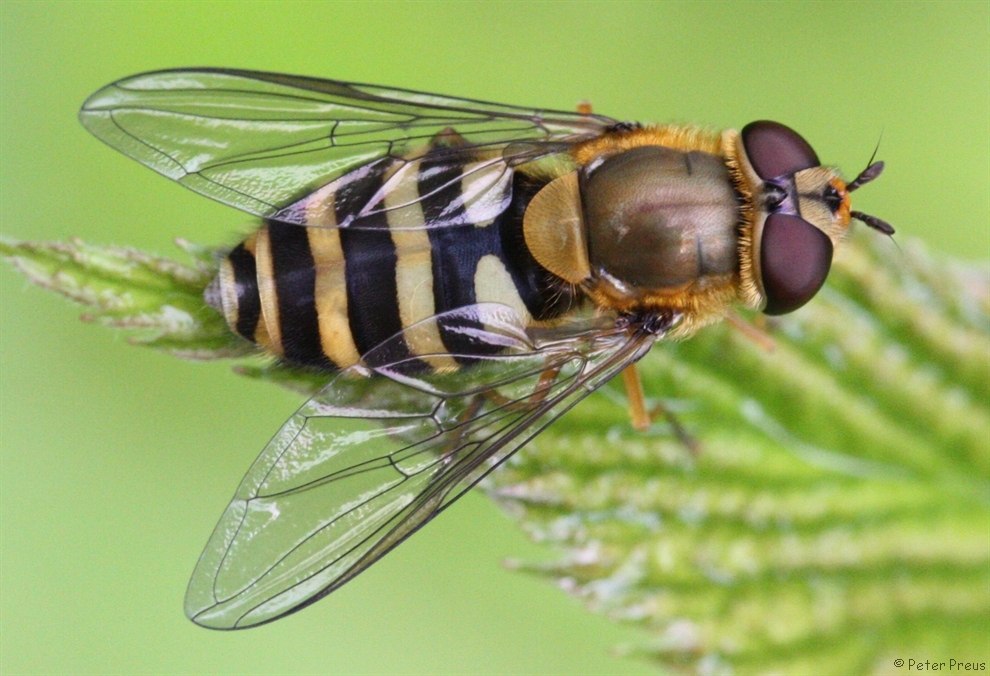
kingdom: Animalia
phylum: Arthropoda
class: Insecta
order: Diptera
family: Syrphidae
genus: Syrphus
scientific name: Syrphus ribesii
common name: Common flower fly
